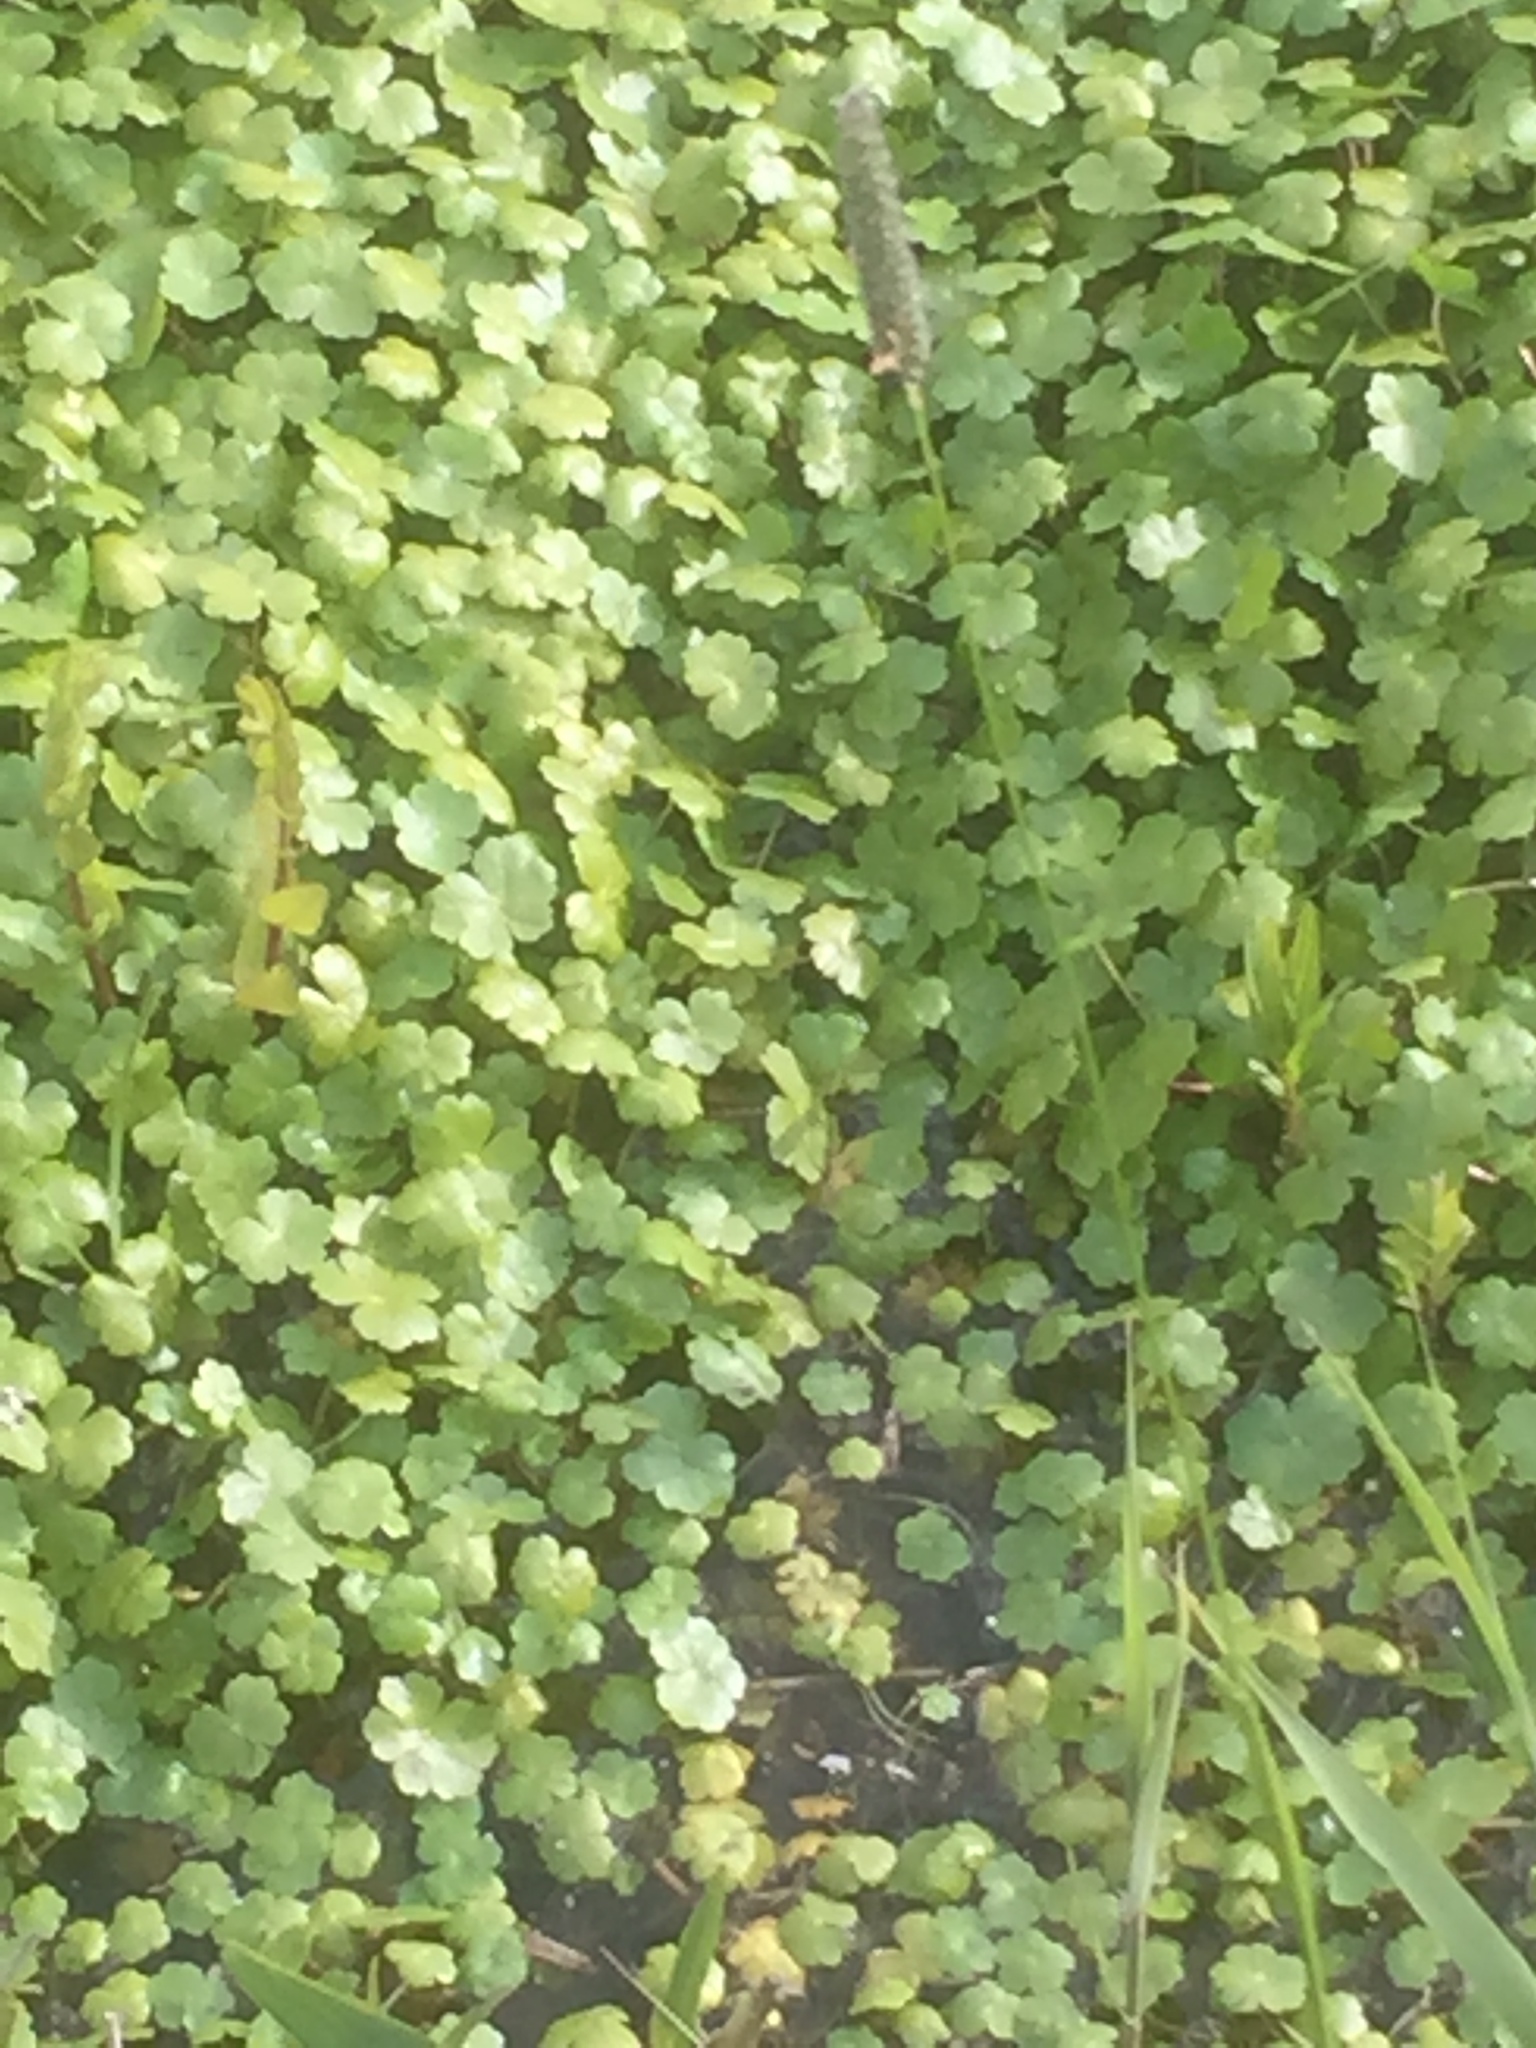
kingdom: Plantae
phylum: Tracheophyta
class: Magnoliopsida
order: Apiales
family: Araliaceae
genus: Hydrocotyle
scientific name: Hydrocotyle ranunculoides
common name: Floating pennywort
